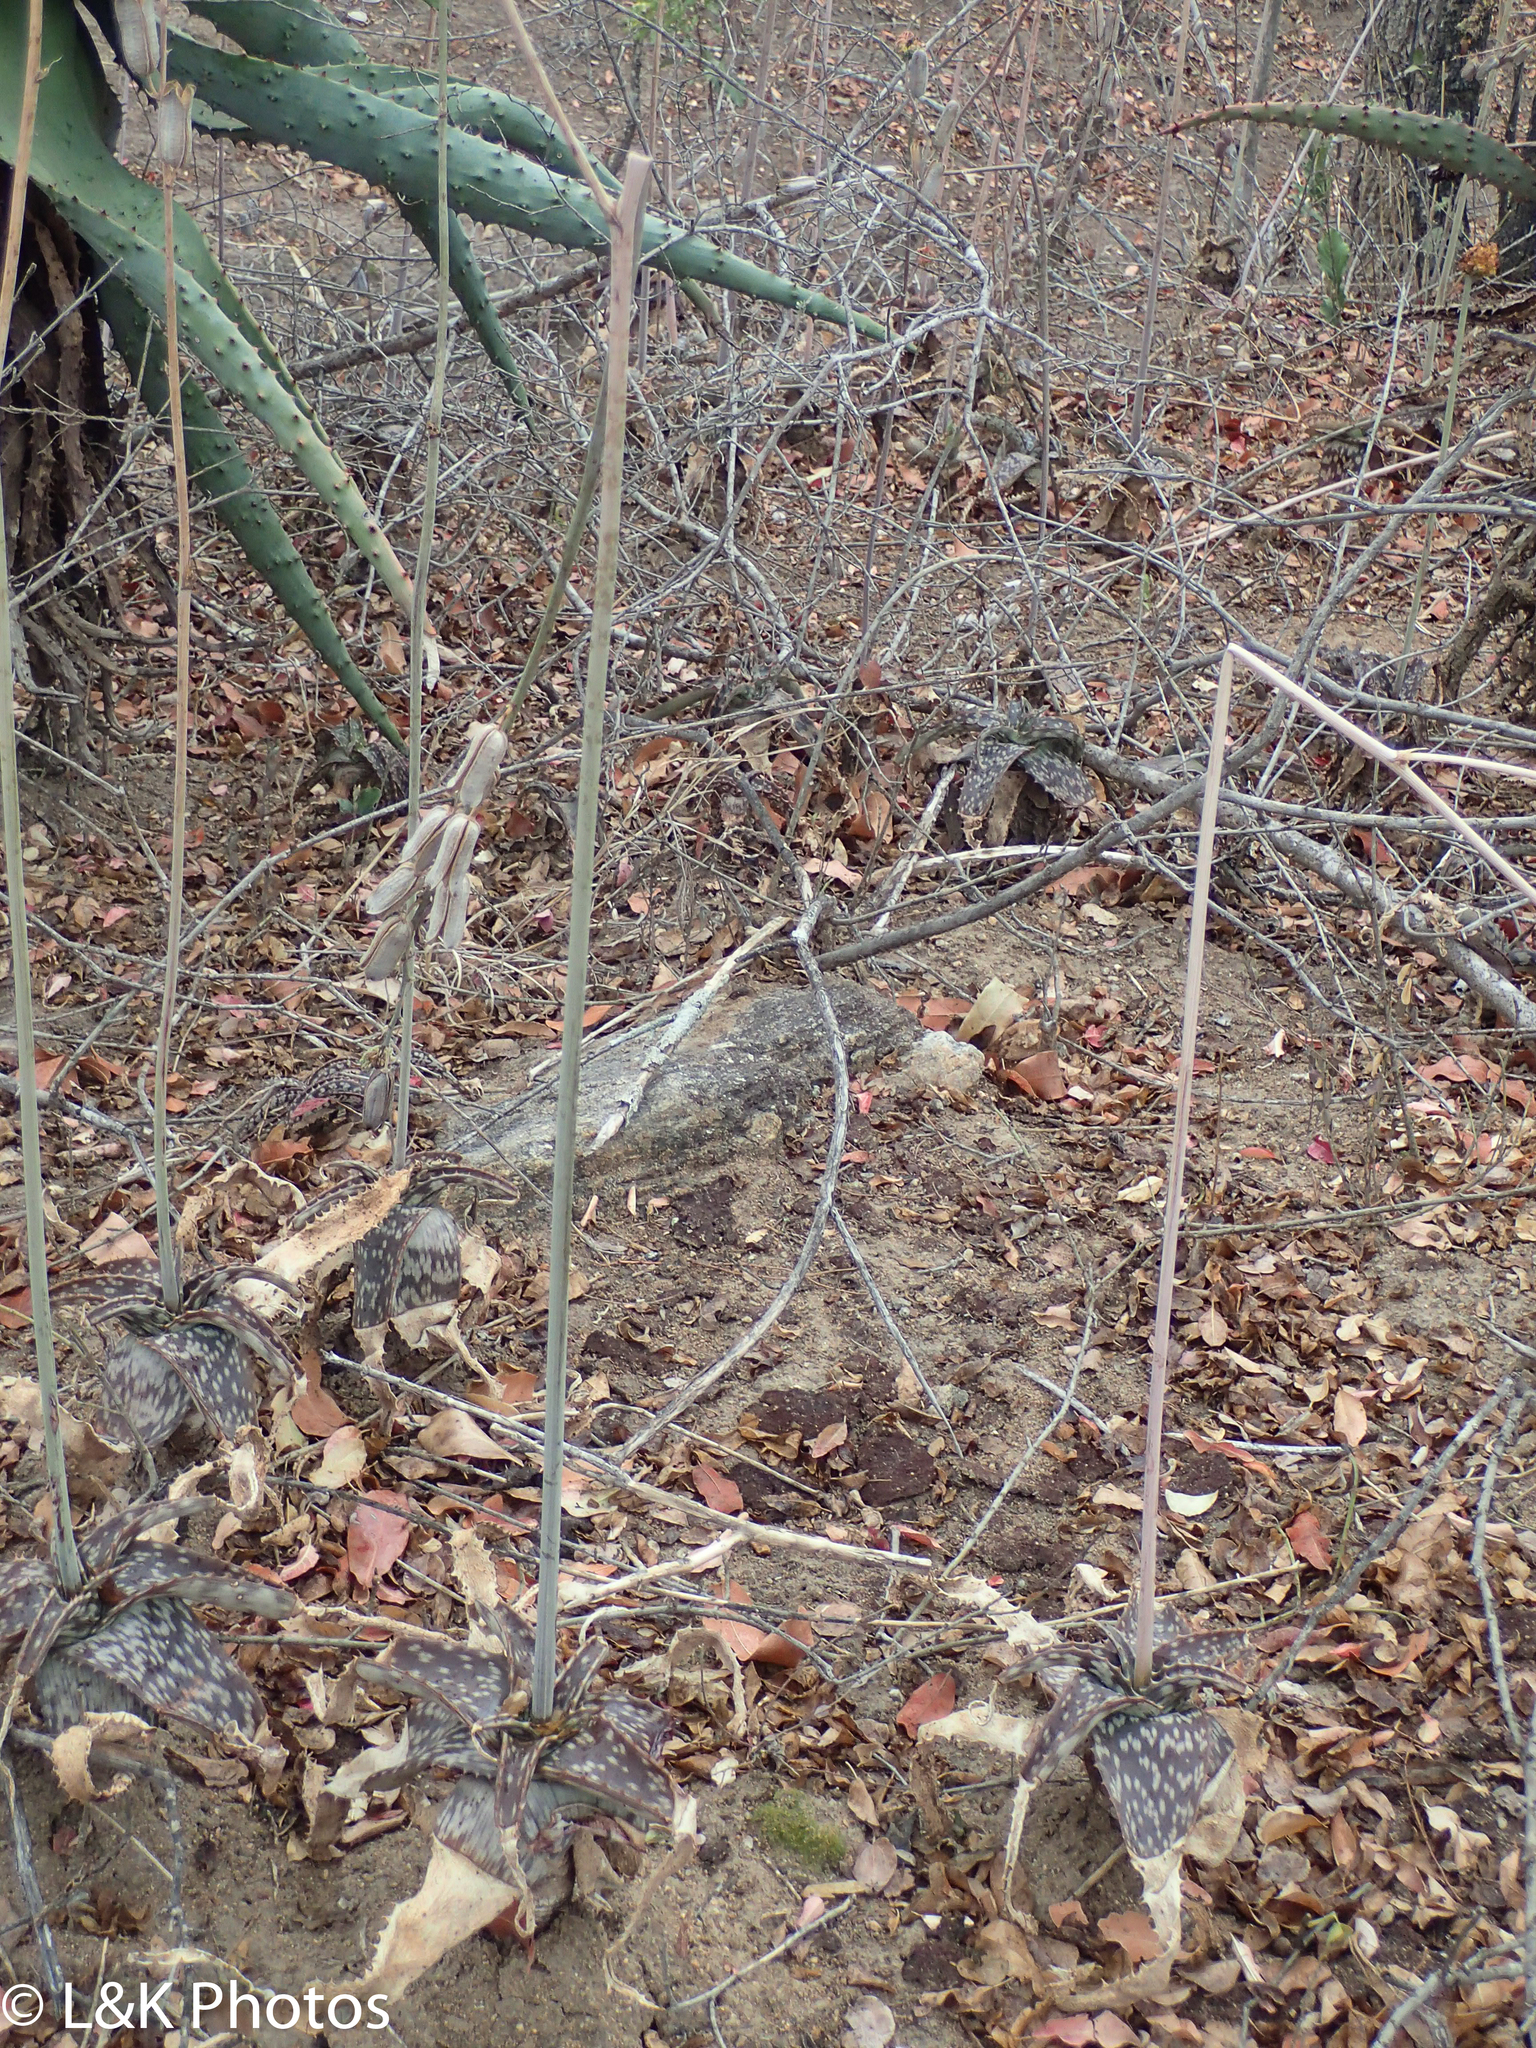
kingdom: Plantae
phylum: Tracheophyta
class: Liliopsida
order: Asparagales
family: Asphodelaceae
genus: Aloe
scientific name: Aloe parvibracteata
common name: Lowveld spotted aloe
